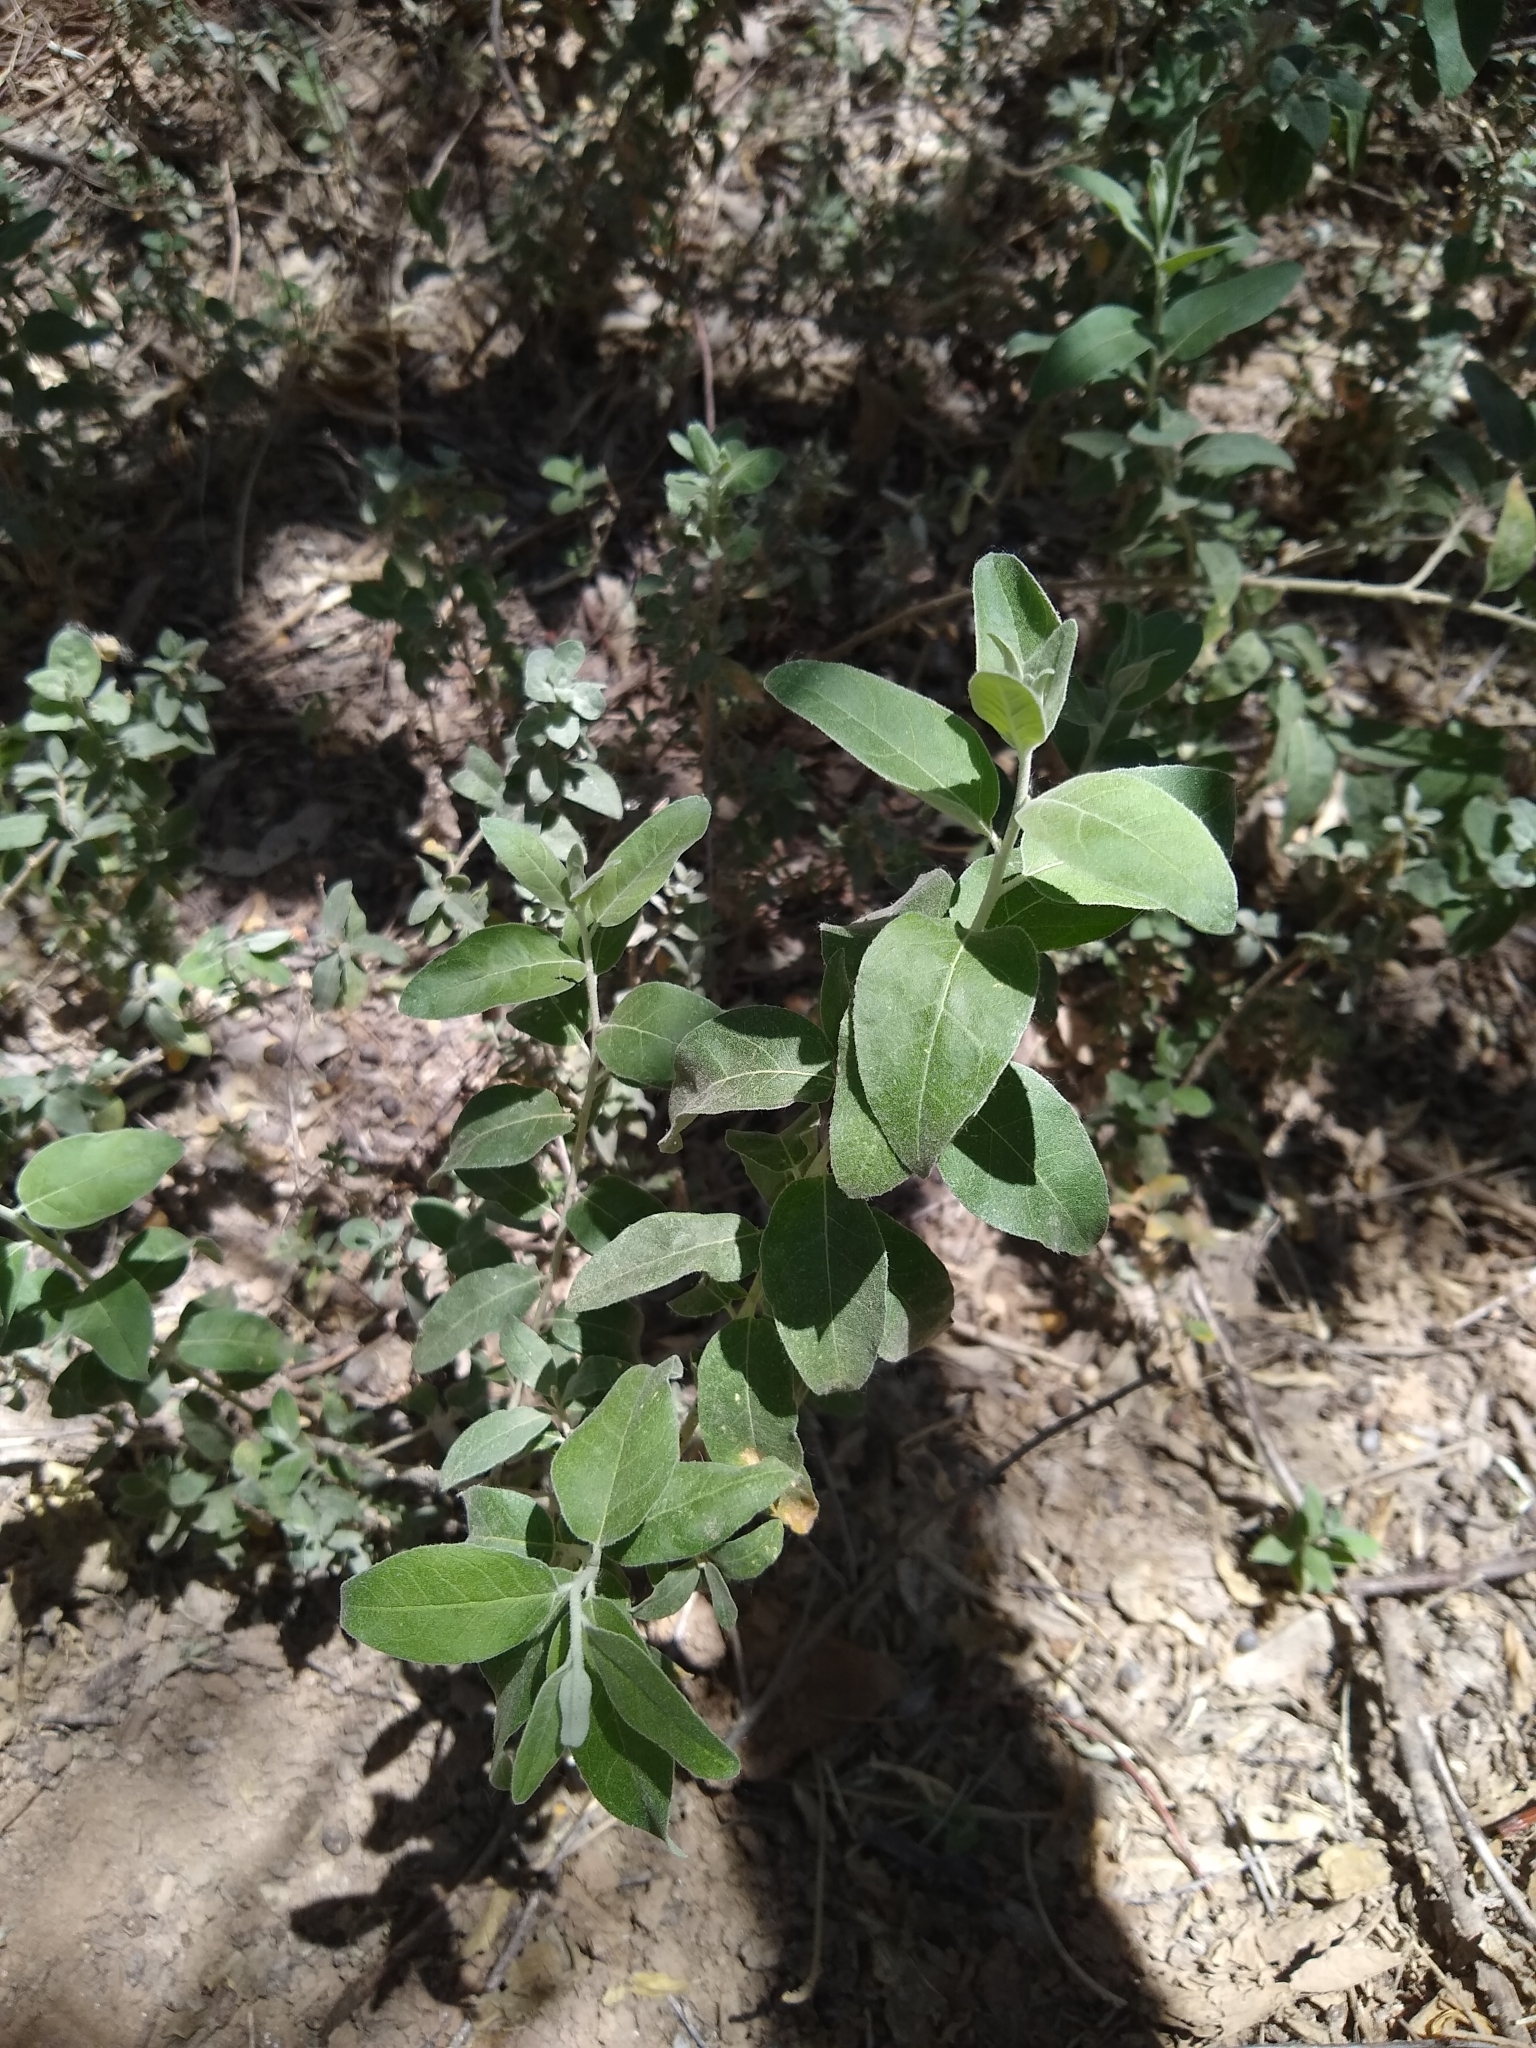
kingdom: Plantae
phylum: Tracheophyta
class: Magnoliopsida
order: Rosales
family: Elaeagnaceae
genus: Elaeagnus
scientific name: Elaeagnus angustifolia
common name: Russian olive
